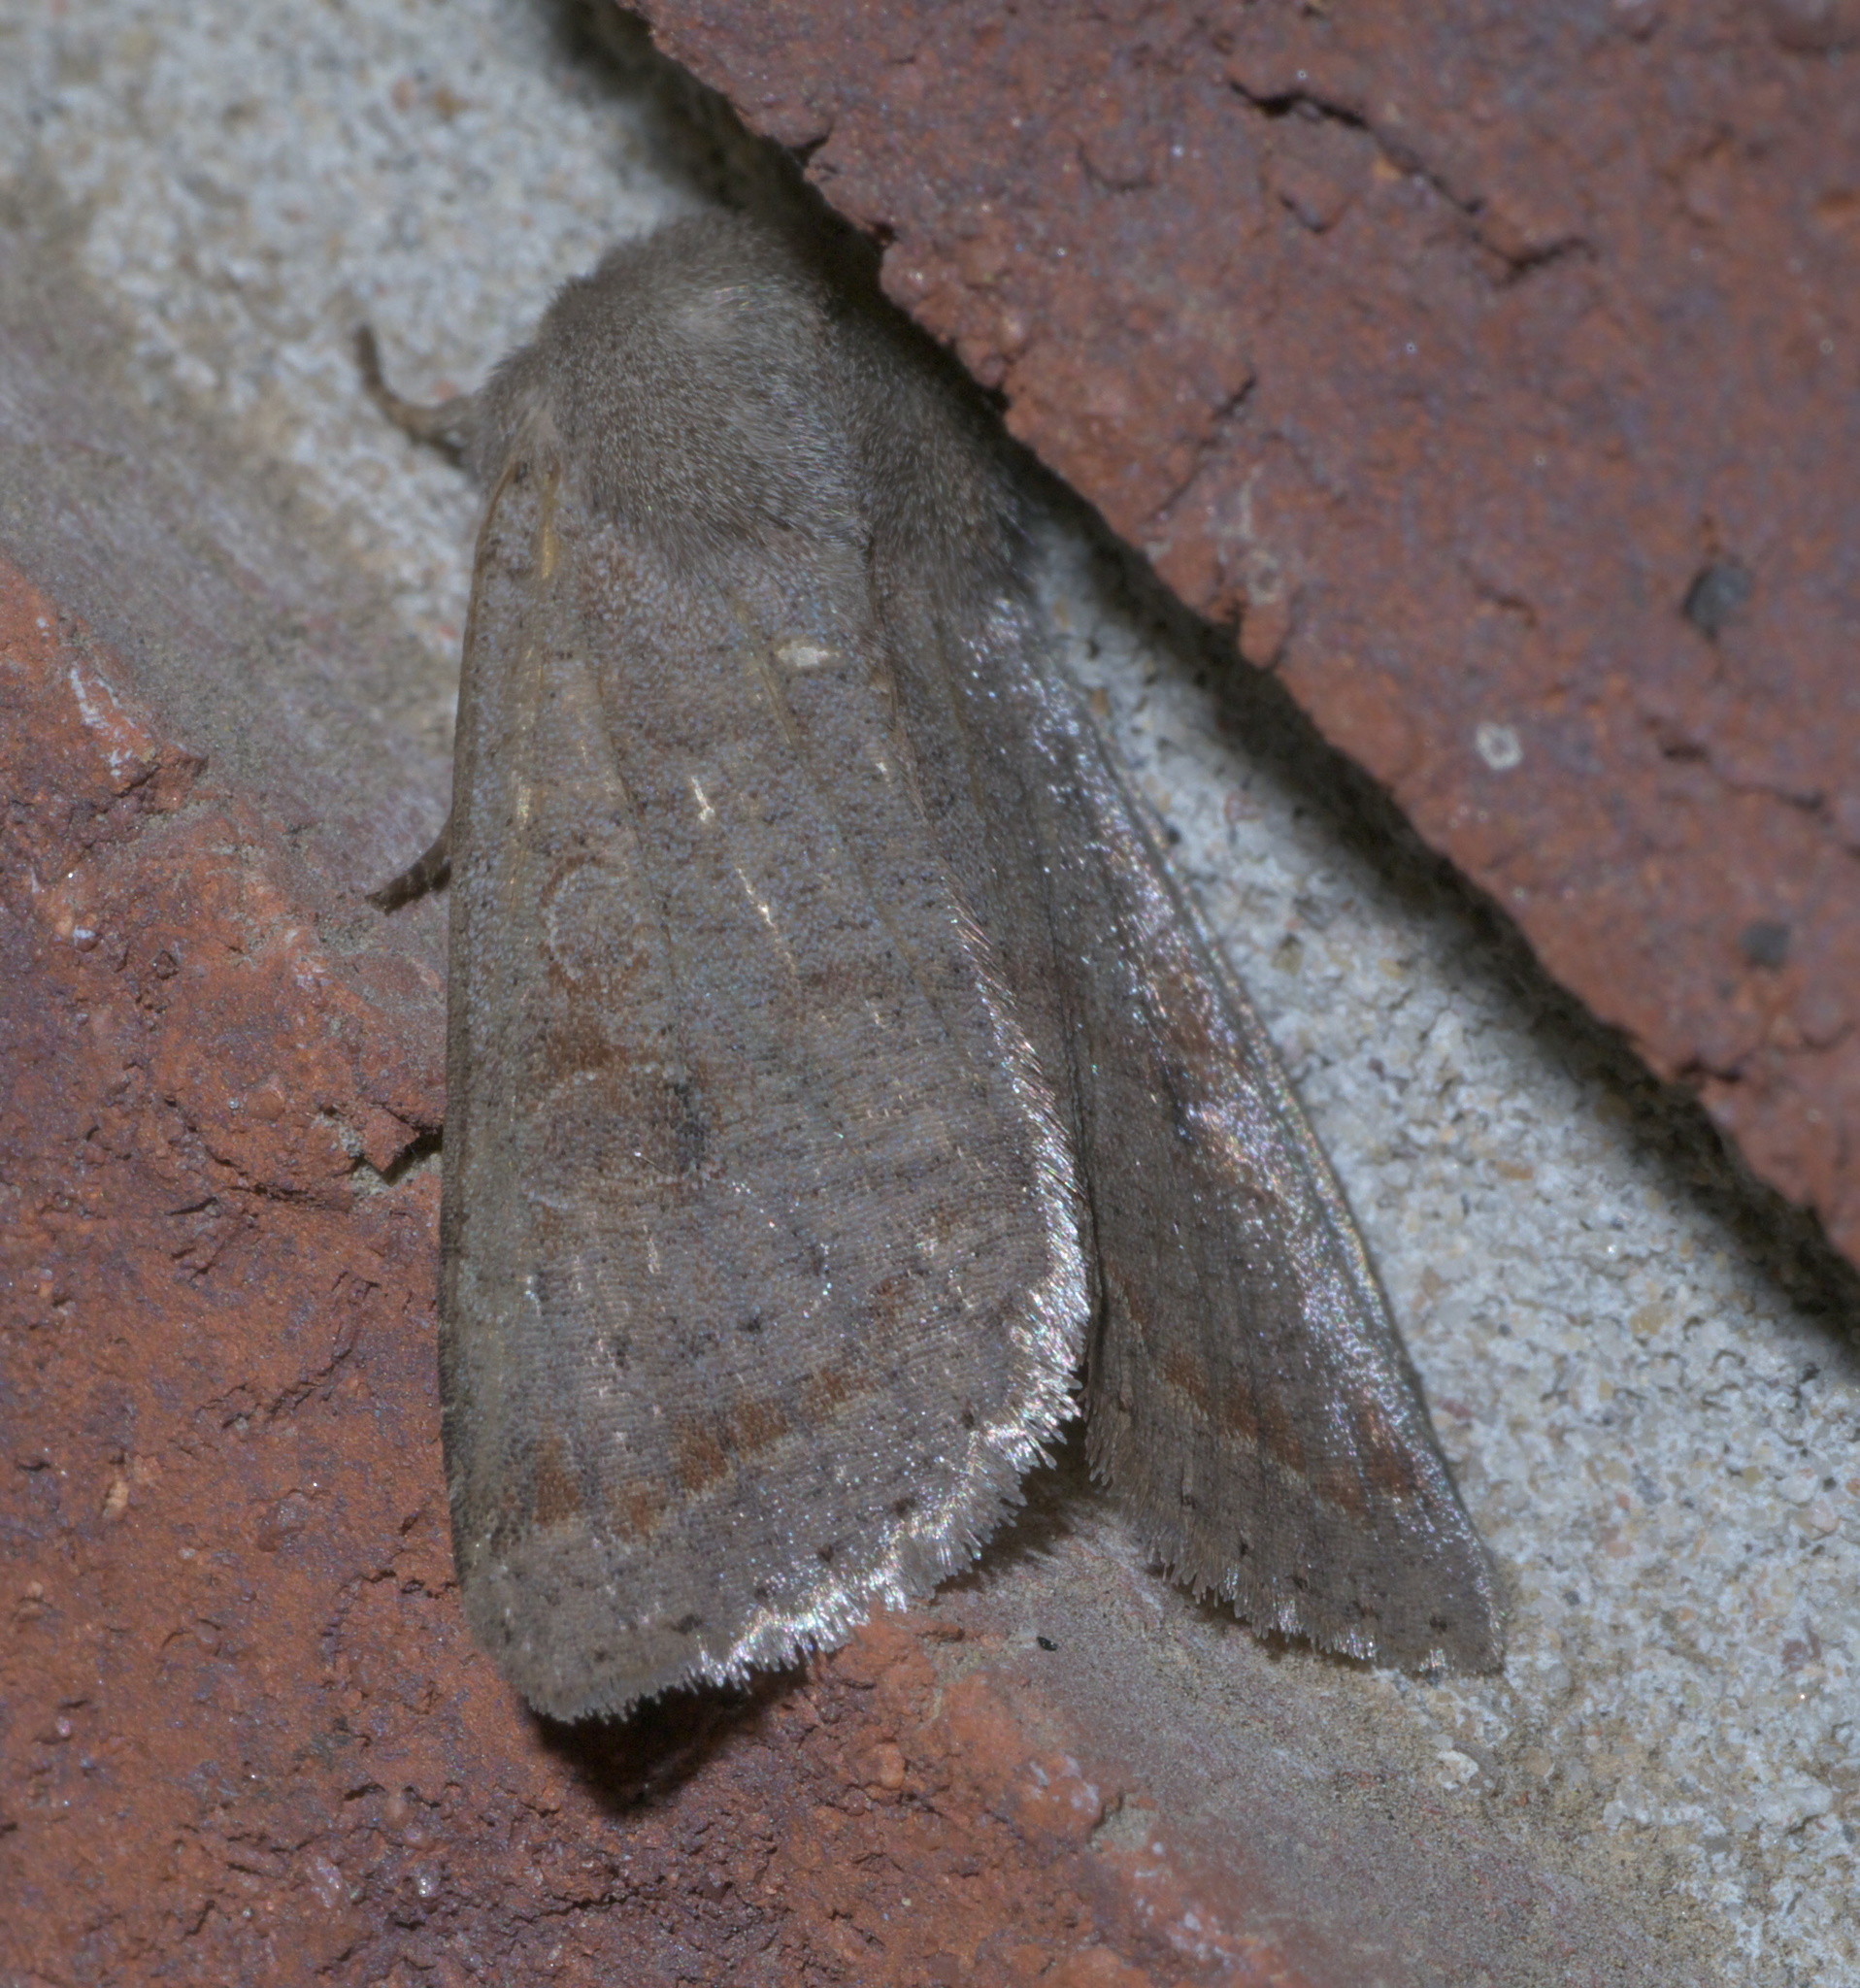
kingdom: Animalia
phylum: Arthropoda
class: Insecta
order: Lepidoptera
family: Noctuidae
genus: Orthosia
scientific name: Orthosia alurina
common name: Gray quaker
